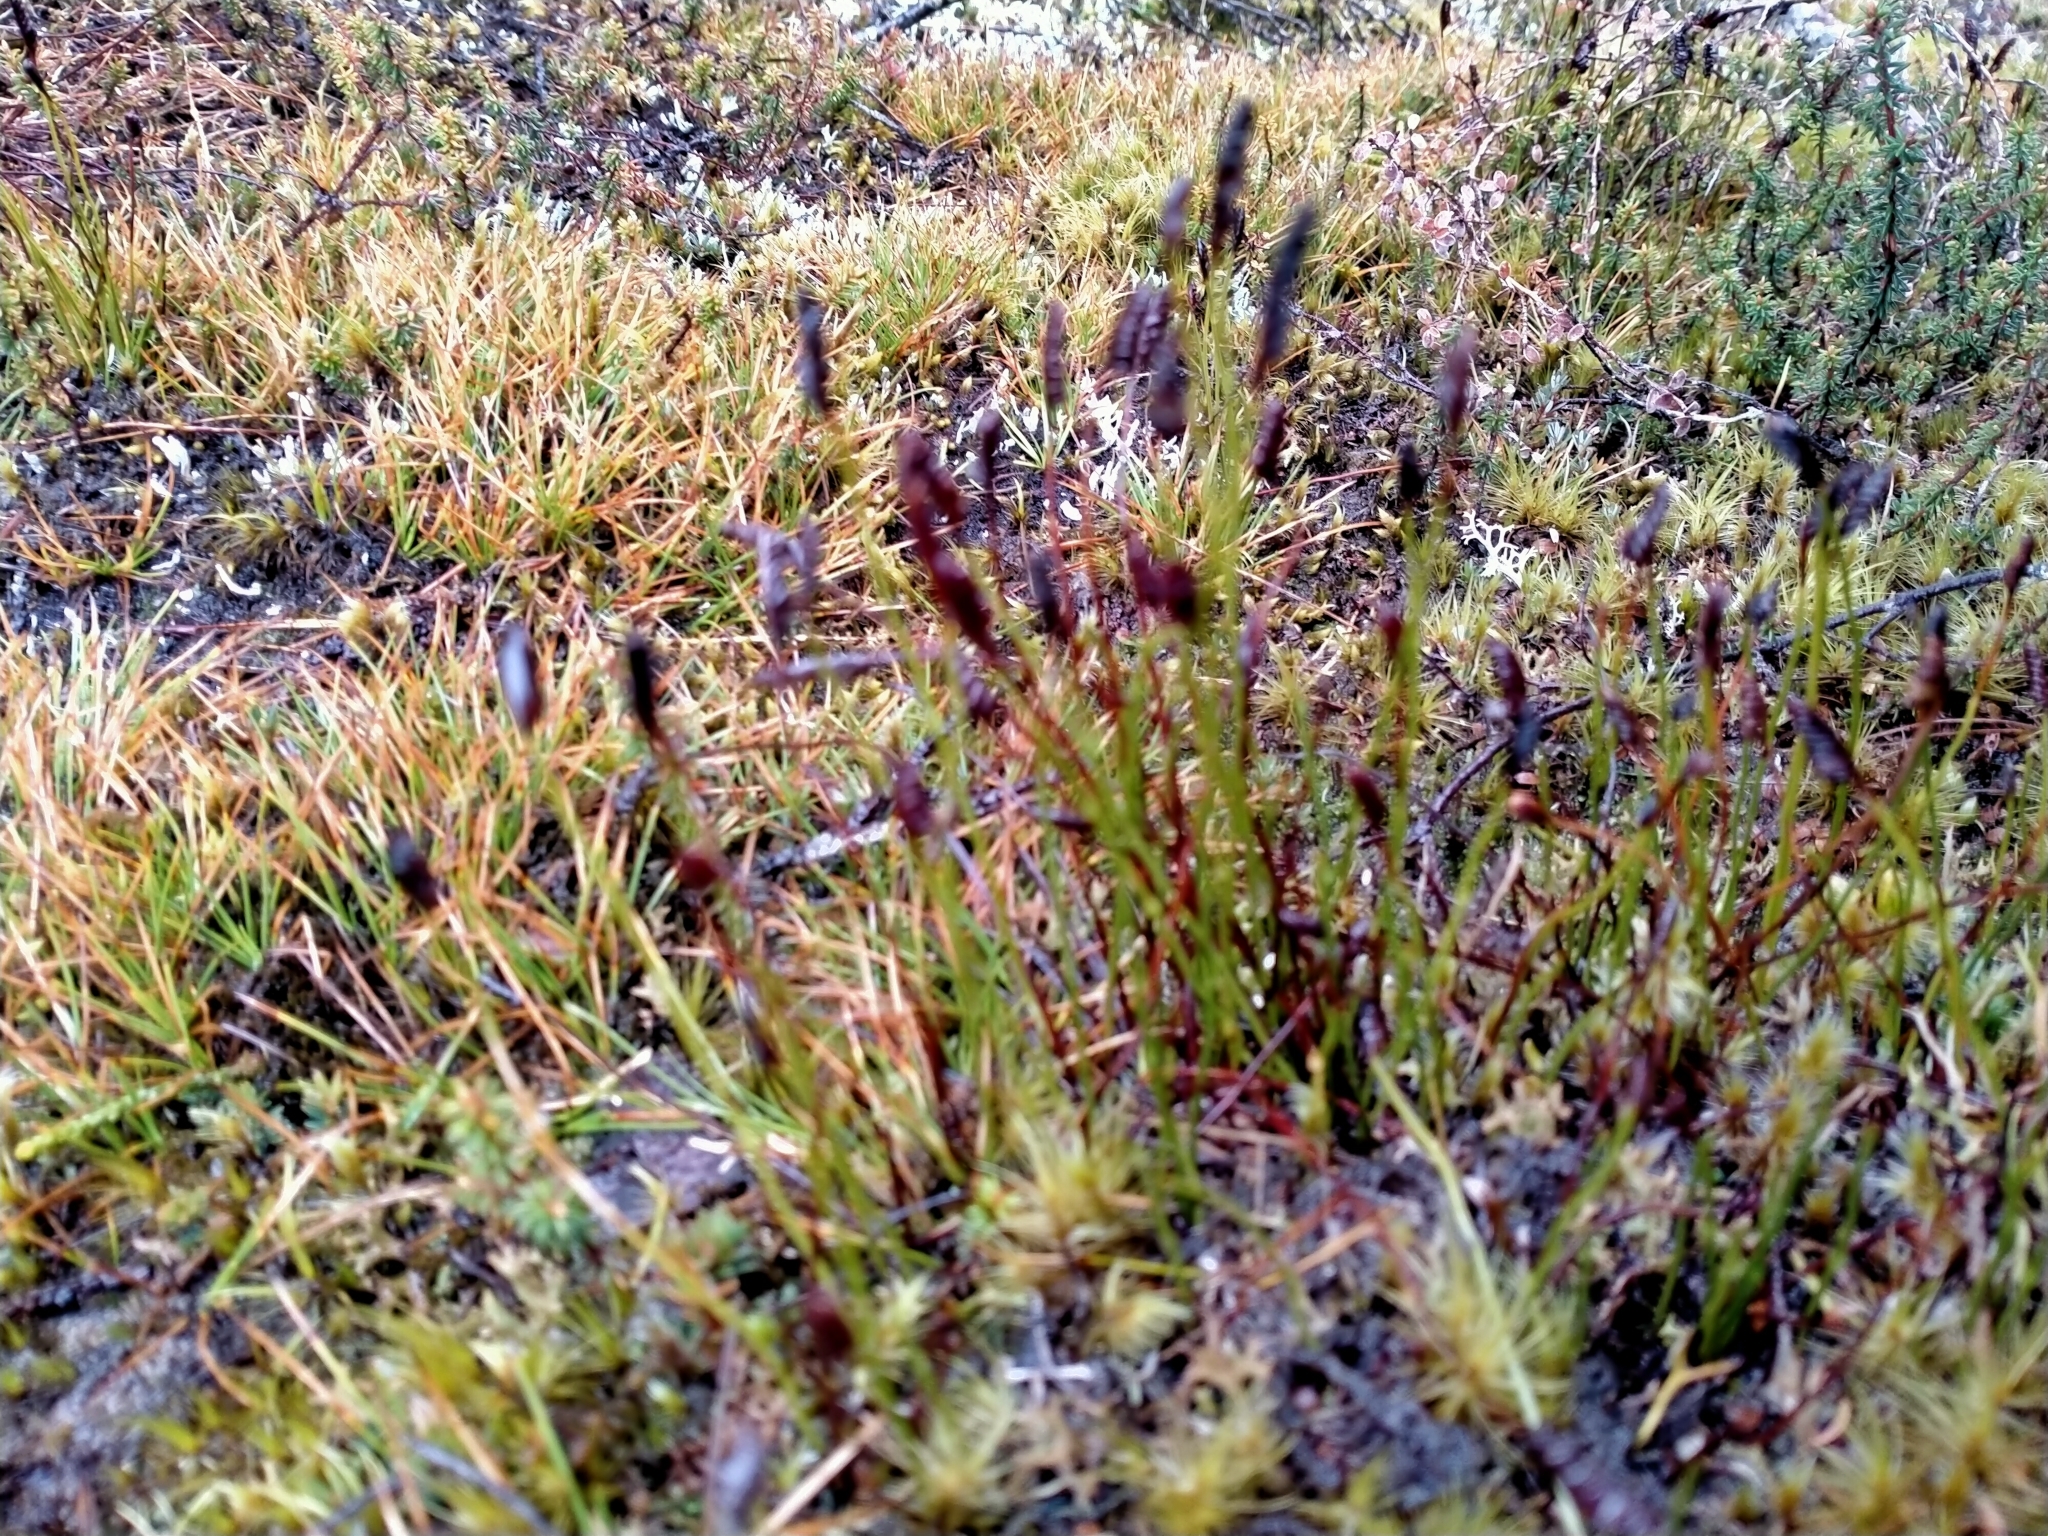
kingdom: Plantae
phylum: Tracheophyta
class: Polypodiopsida
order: Schizaeales
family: Schizaeaceae
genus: Microschizaea
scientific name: Microschizaea australis
